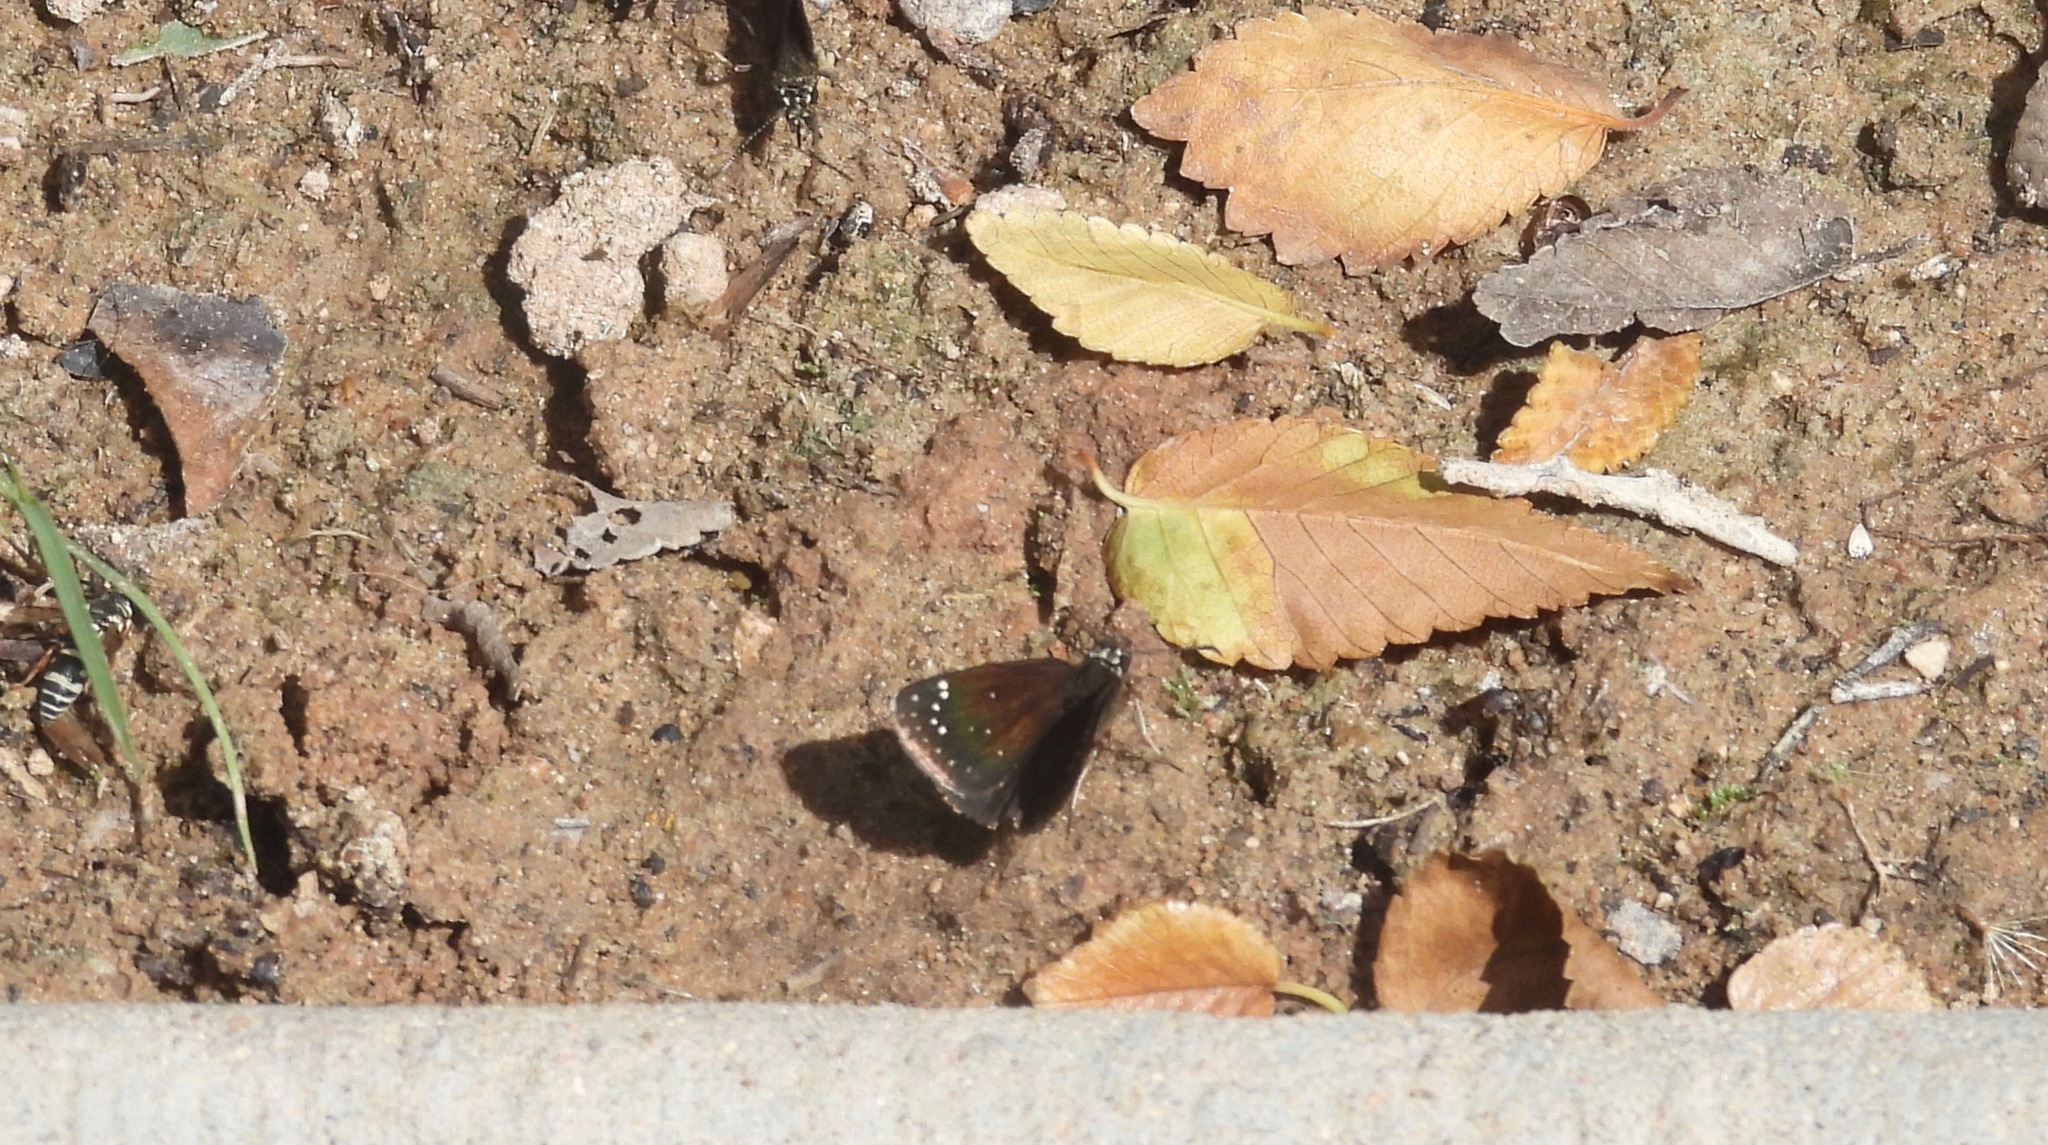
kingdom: Animalia
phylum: Arthropoda
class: Insecta
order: Lepidoptera
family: Hesperiidae
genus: Pholisora
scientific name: Pholisora catullus
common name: Common sootywing
